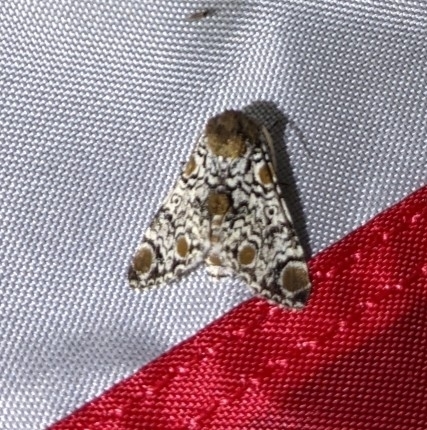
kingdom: Animalia
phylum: Arthropoda
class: Insecta
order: Lepidoptera
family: Noctuidae
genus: Harrisimemna
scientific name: Harrisimemna trisignata
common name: Harris threespot
